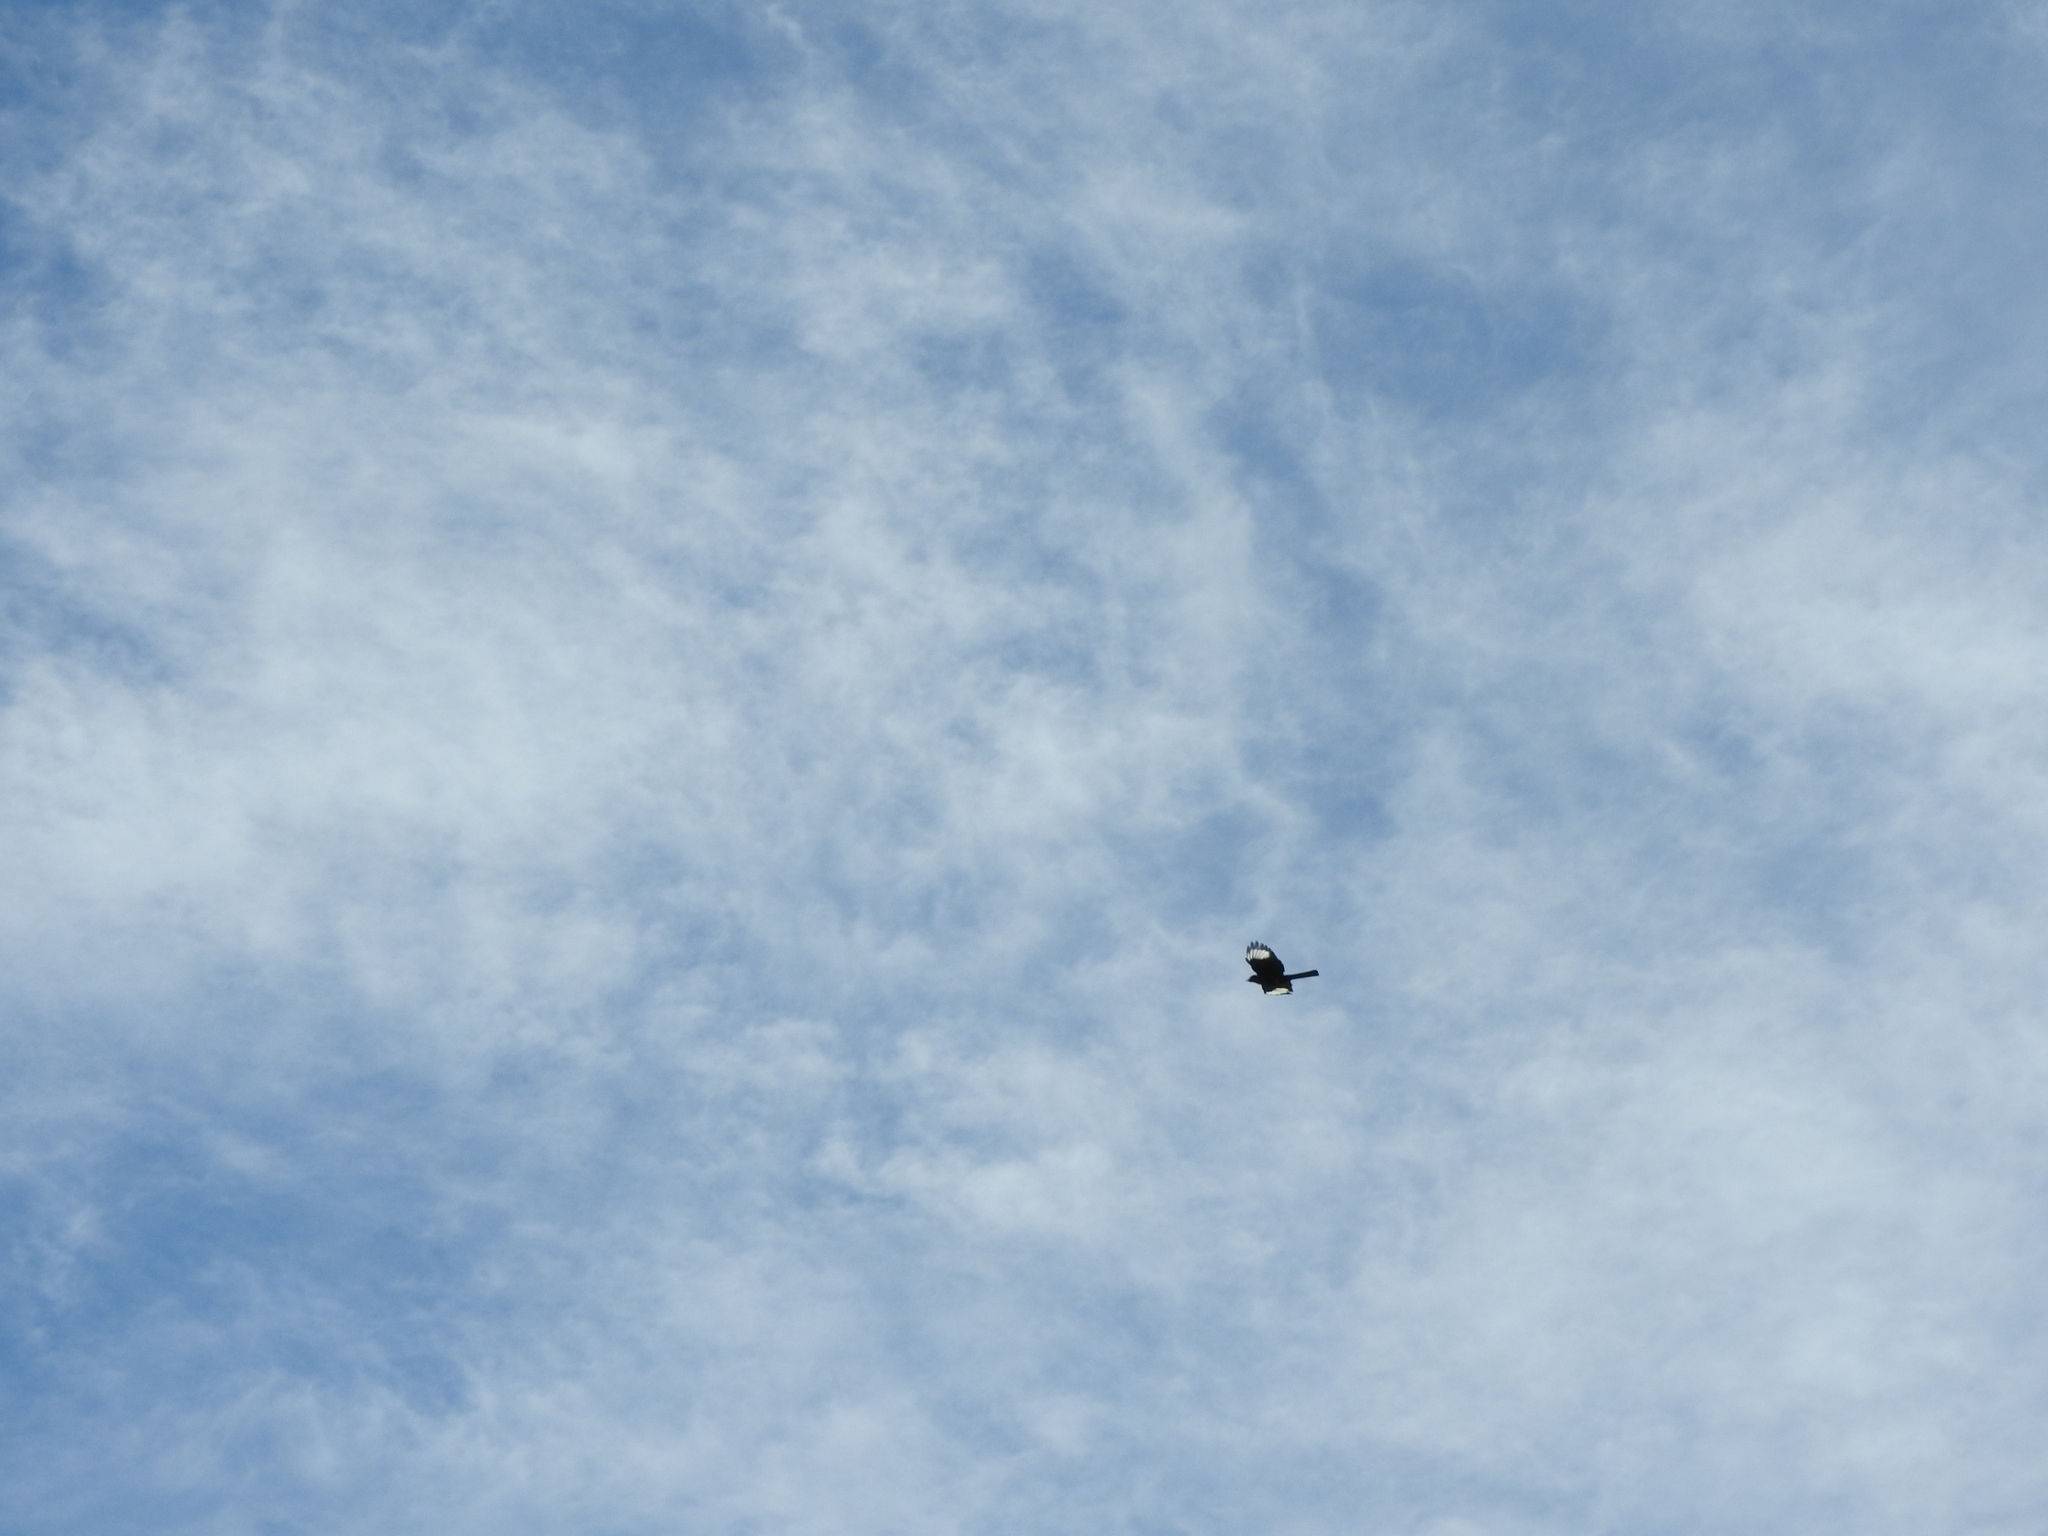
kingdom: Animalia
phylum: Chordata
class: Aves
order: Passeriformes
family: Ptilogonatidae
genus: Phainopepla
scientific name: Phainopepla nitens
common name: Phainopepla
